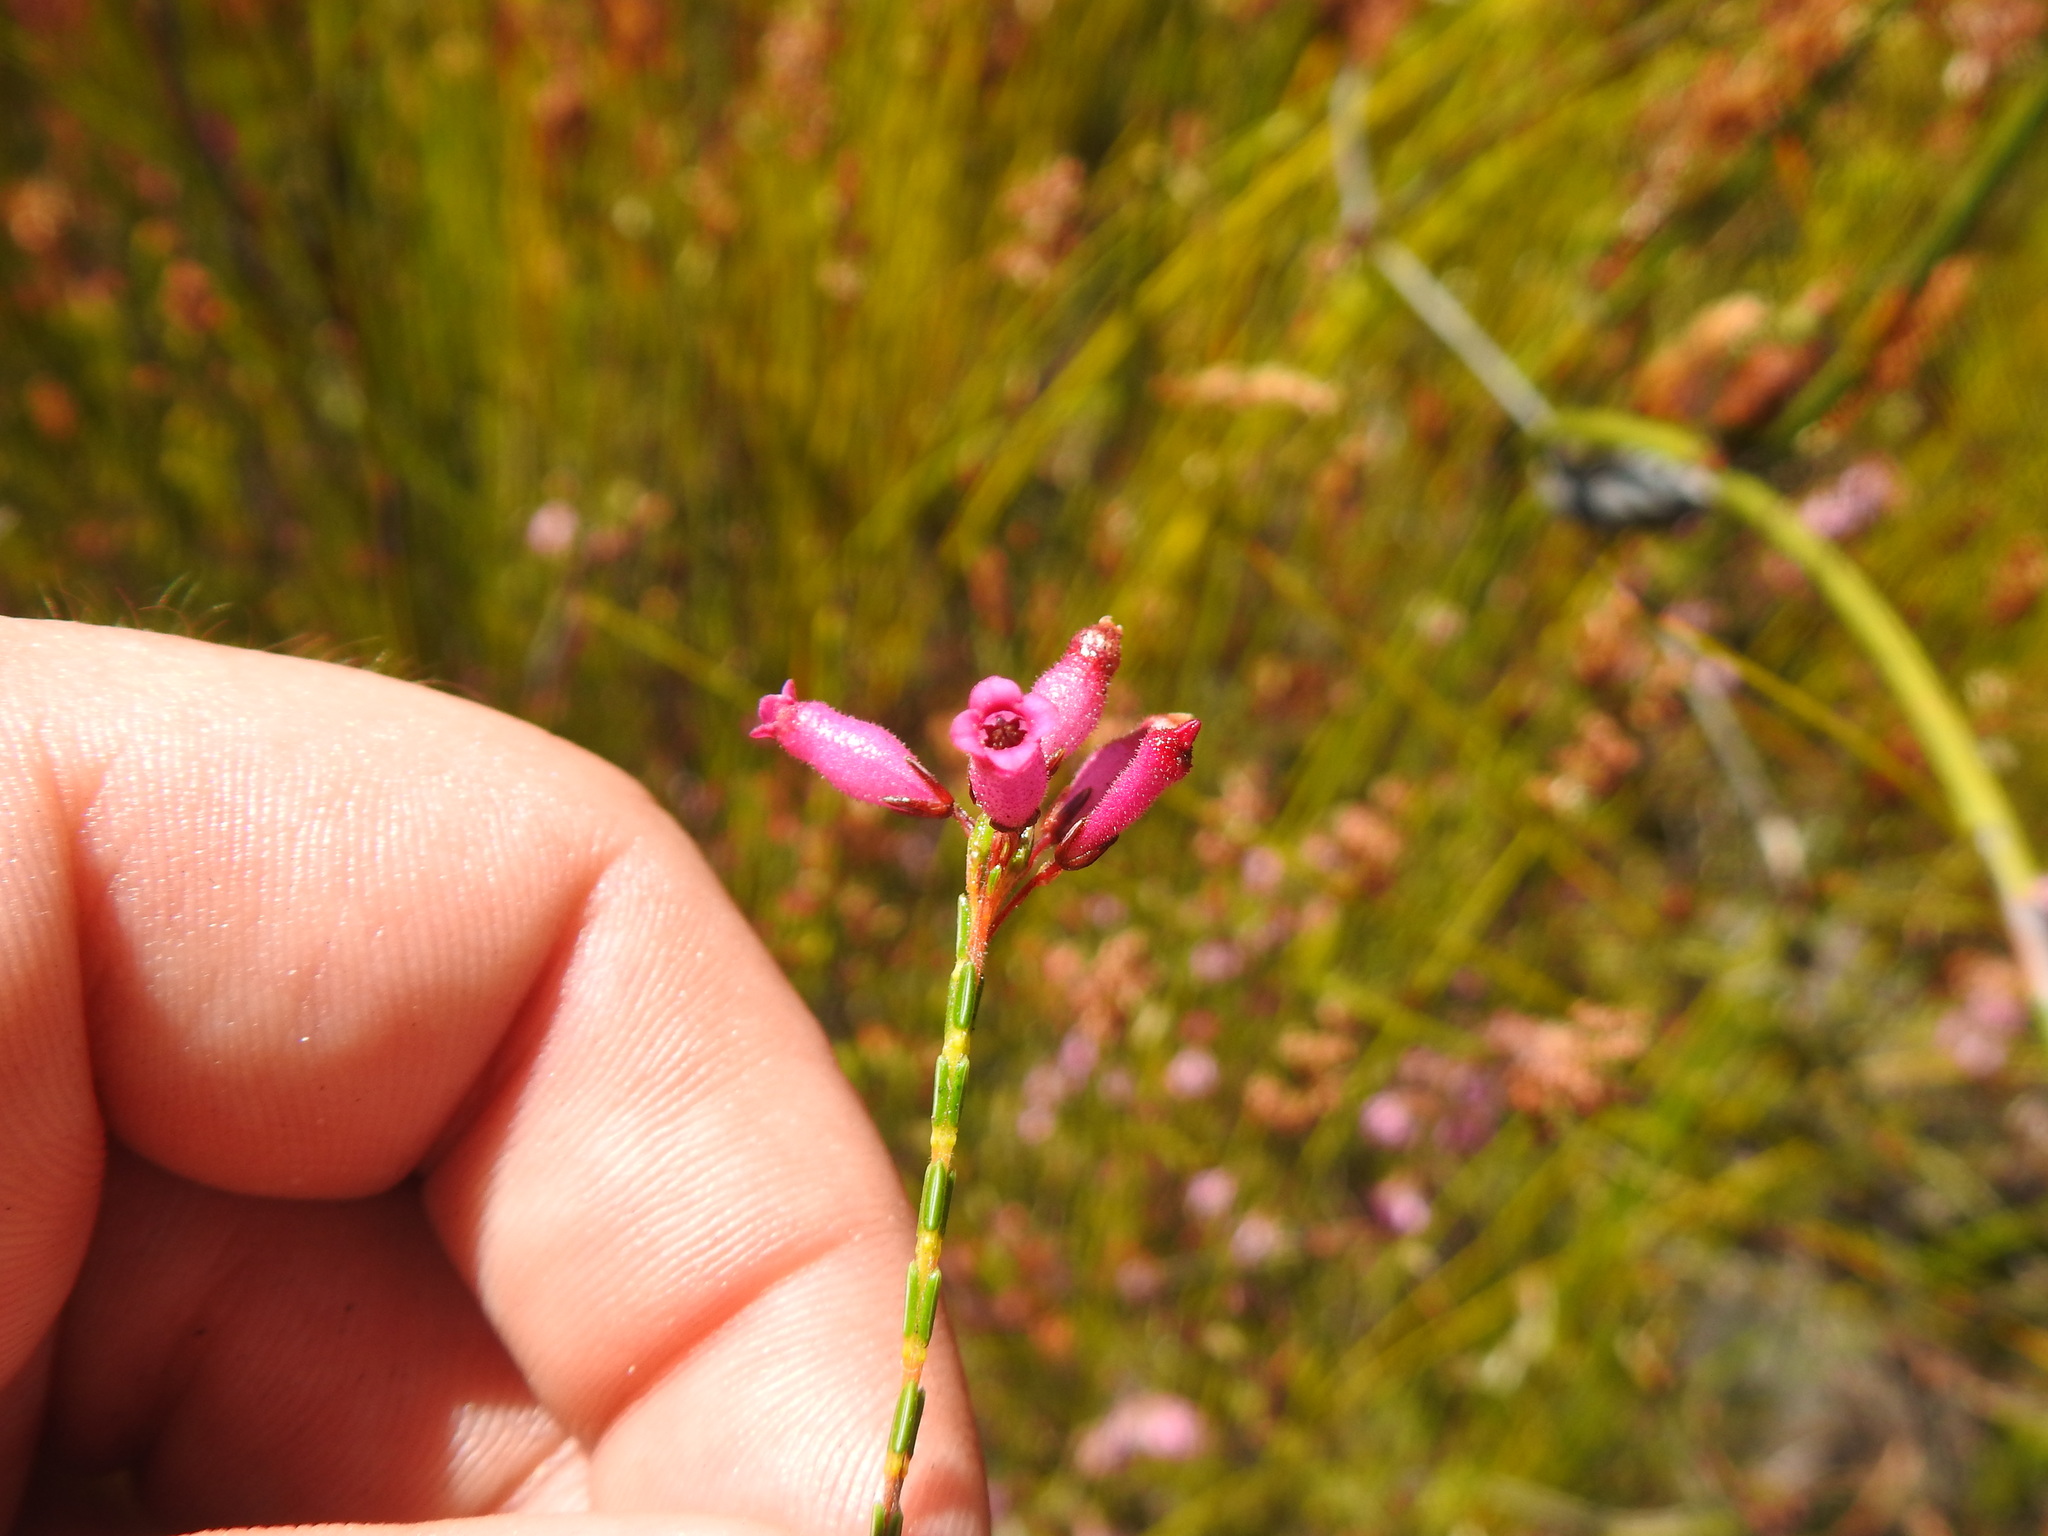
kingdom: Plantae
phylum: Tracheophyta
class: Magnoliopsida
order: Ericales
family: Ericaceae
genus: Erica
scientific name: Erica cristata
